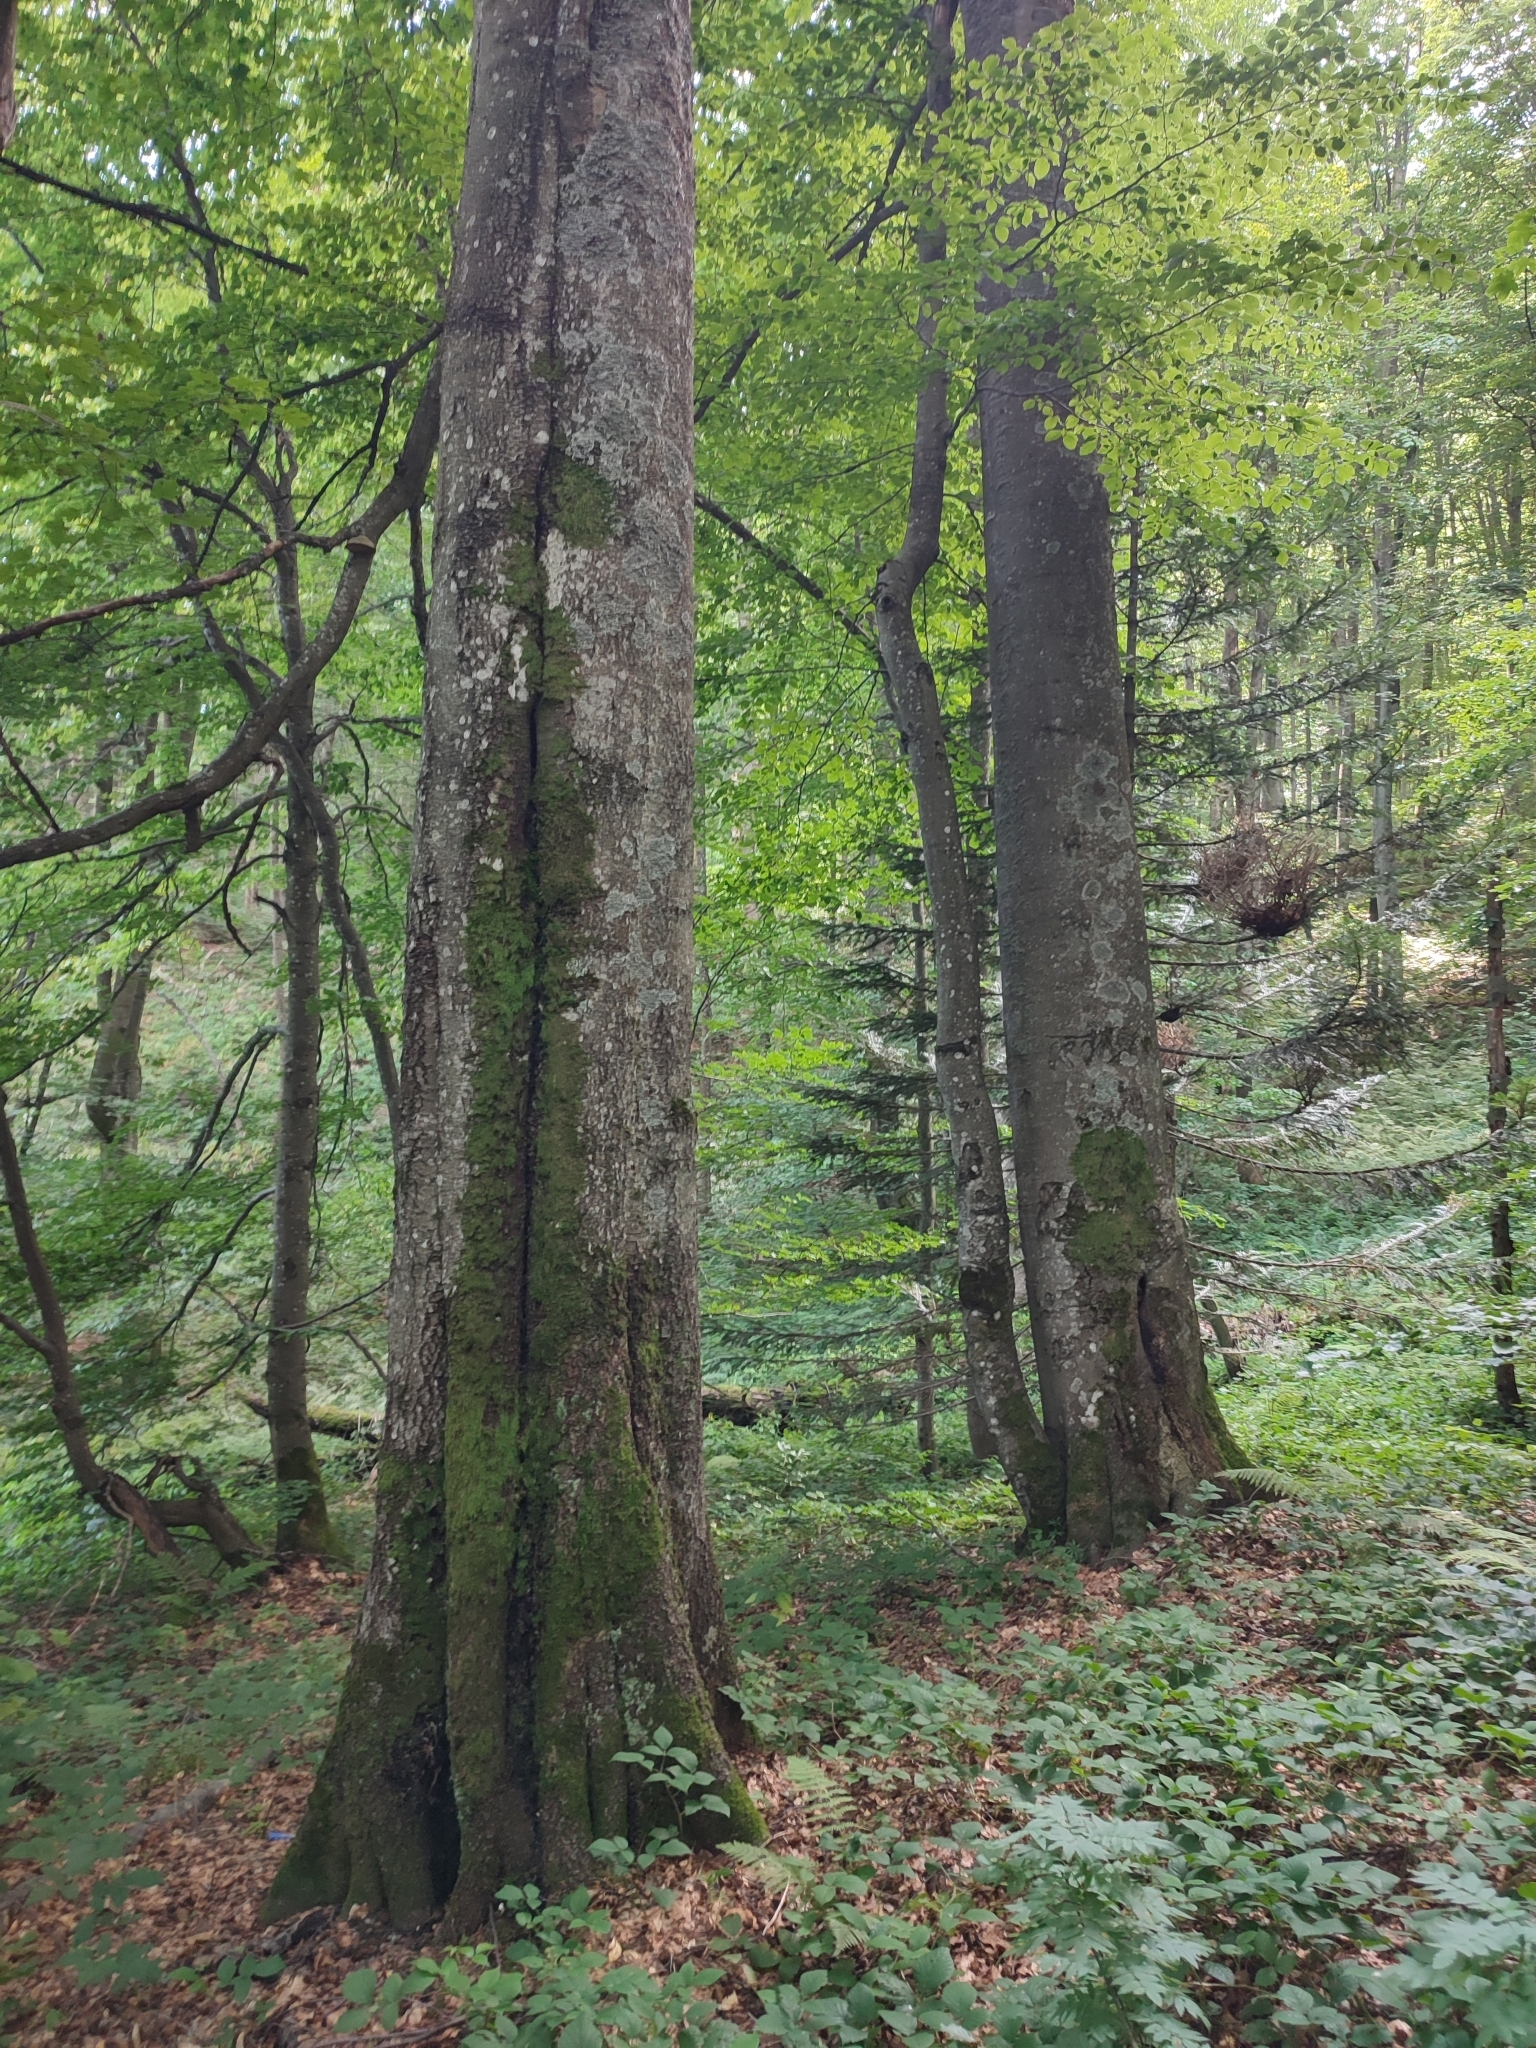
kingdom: Plantae
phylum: Tracheophyta
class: Magnoliopsida
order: Fagales
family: Fagaceae
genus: Fagus
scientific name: Fagus sylvatica
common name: Beech
